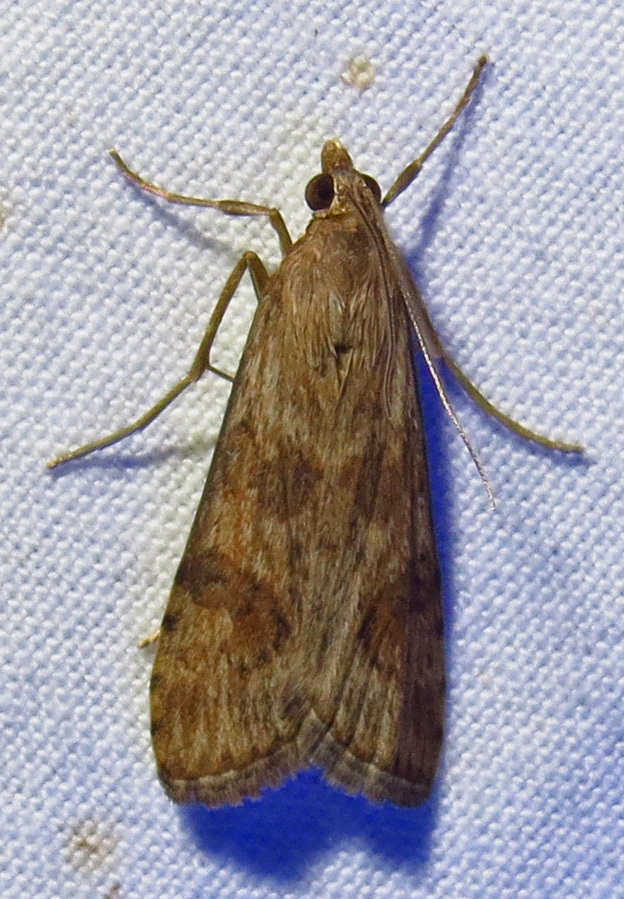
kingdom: Animalia
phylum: Arthropoda
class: Insecta
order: Lepidoptera
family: Crambidae
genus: Nomophila
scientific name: Nomophila nearctica
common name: American rush veneer
